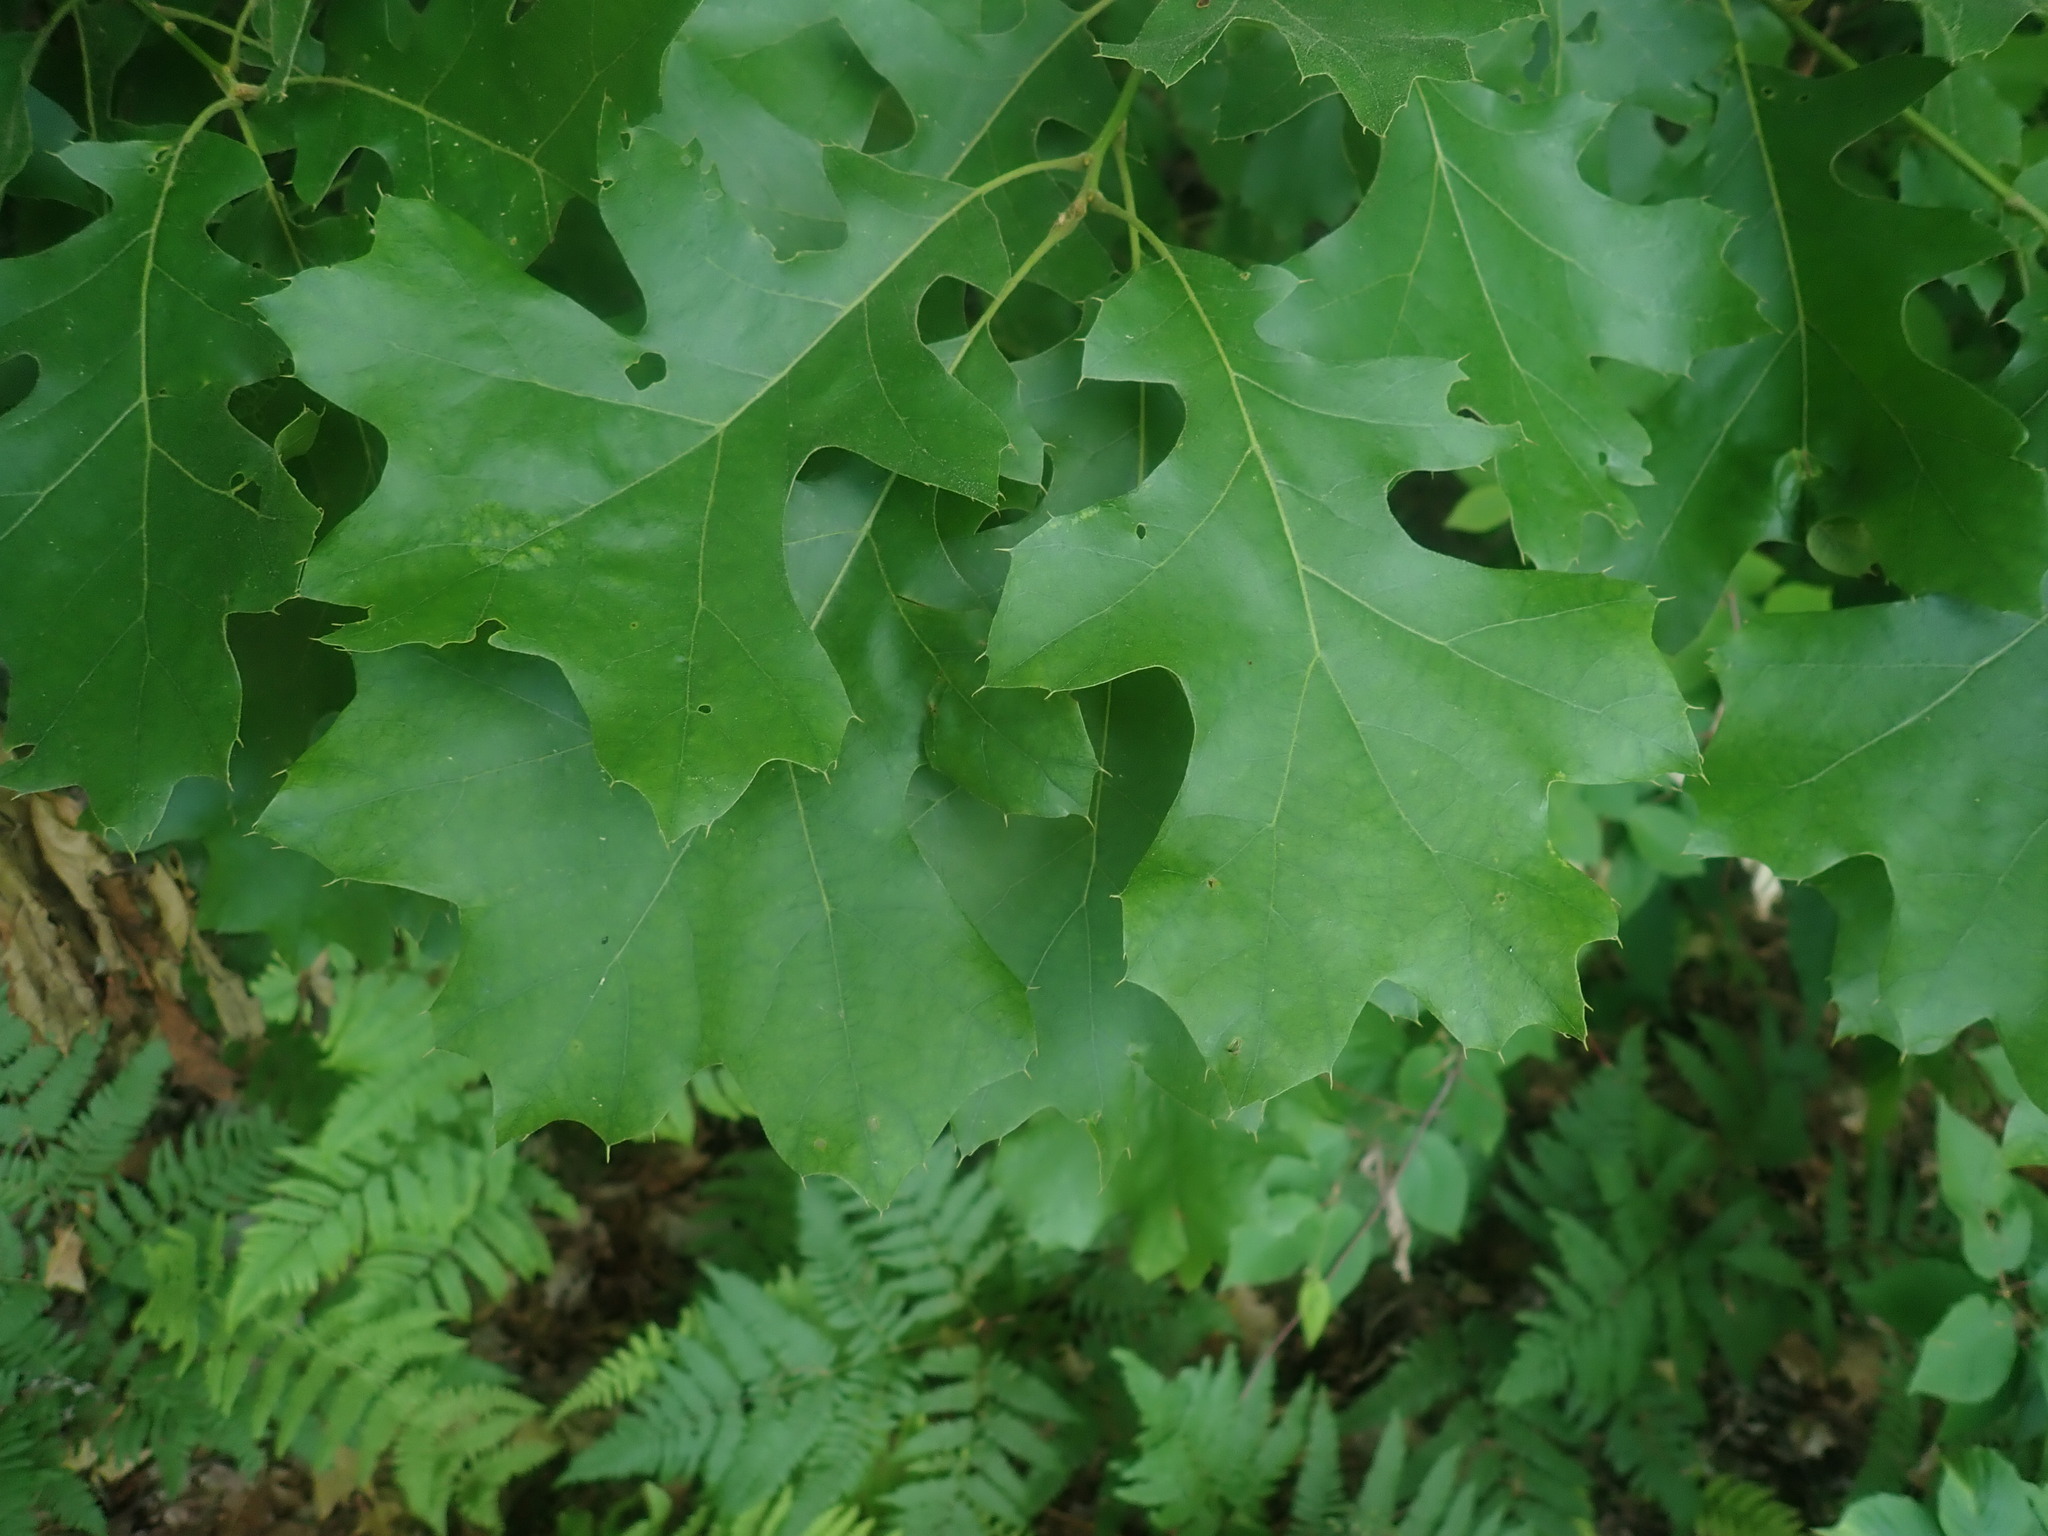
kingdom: Plantae
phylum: Tracheophyta
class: Magnoliopsida
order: Fagales
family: Fagaceae
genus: Quercus
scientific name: Quercus velutina
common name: Black oak
